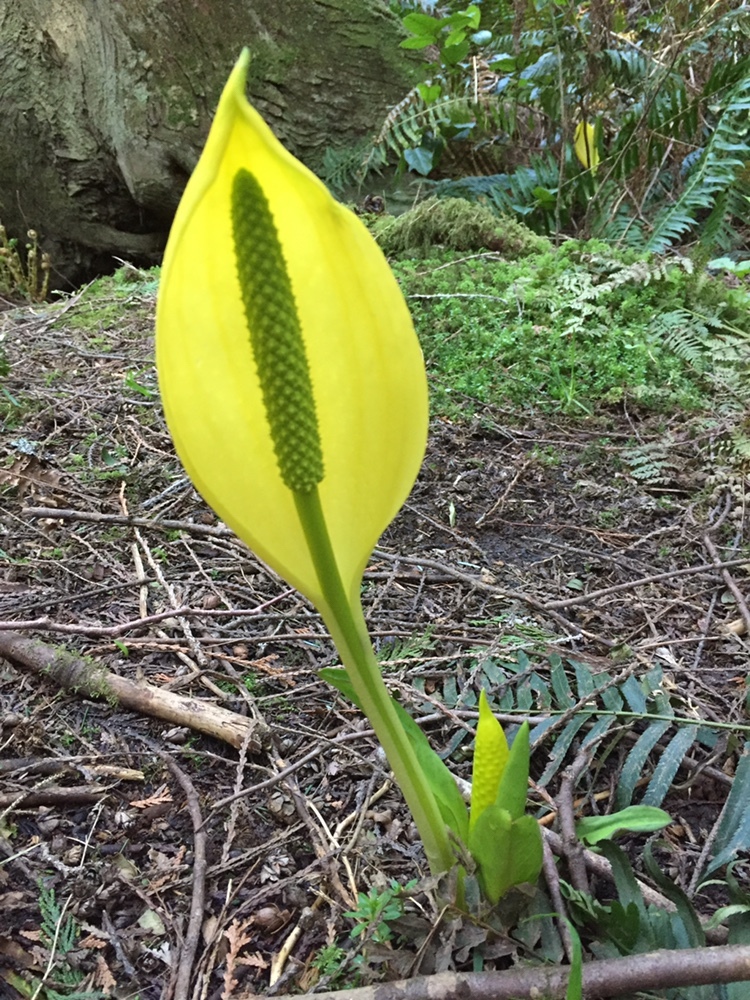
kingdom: Plantae
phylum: Tracheophyta
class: Liliopsida
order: Alismatales
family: Araceae
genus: Lysichiton
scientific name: Lysichiton americanus
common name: American skunk cabbage
